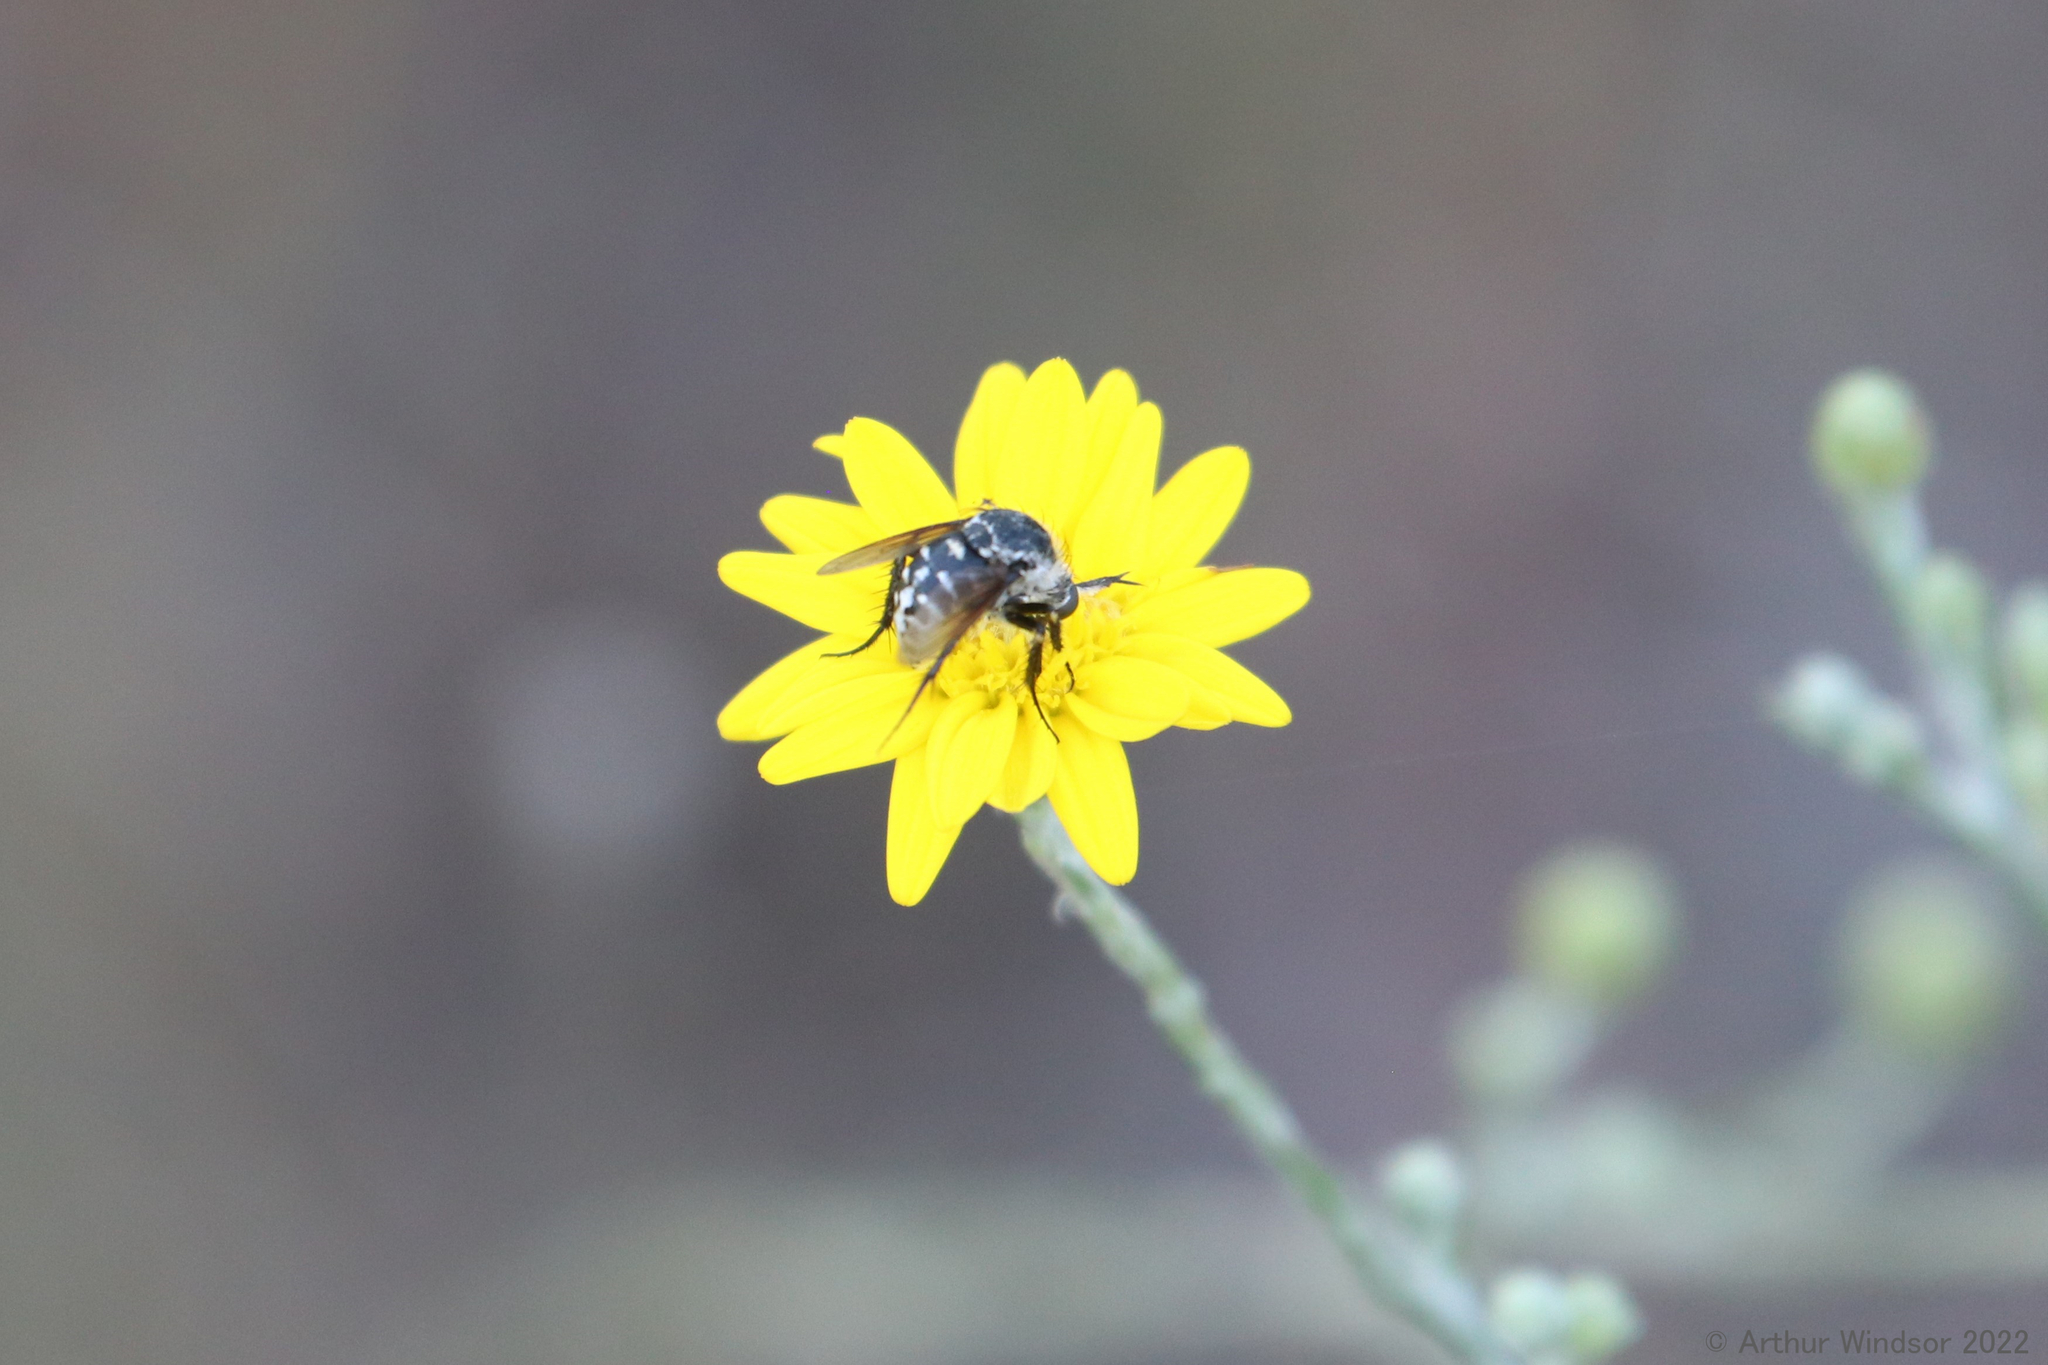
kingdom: Animalia
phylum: Arthropoda
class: Insecta
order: Diptera
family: Bombyliidae
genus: Toxophora
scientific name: Toxophora amphitea
